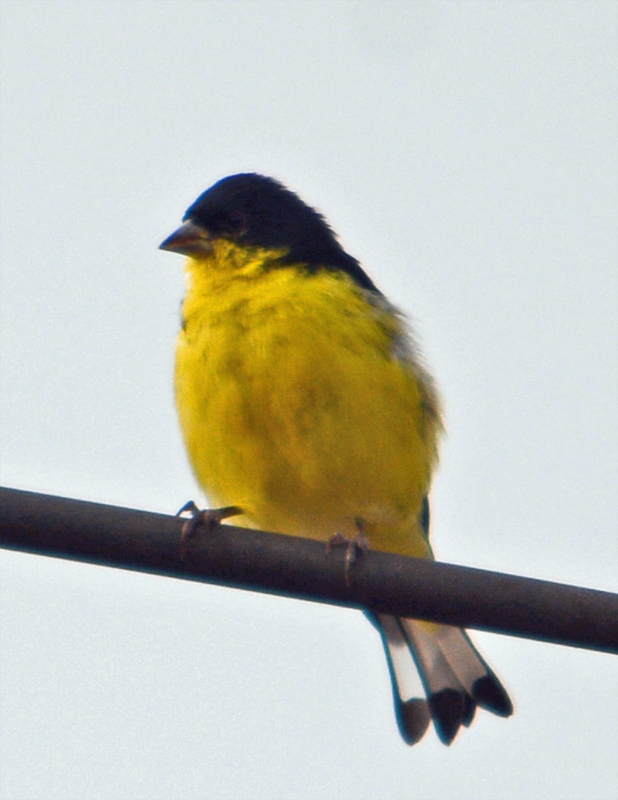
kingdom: Animalia
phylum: Chordata
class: Aves
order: Passeriformes
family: Fringillidae
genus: Spinus
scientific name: Spinus psaltria
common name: Lesser goldfinch
